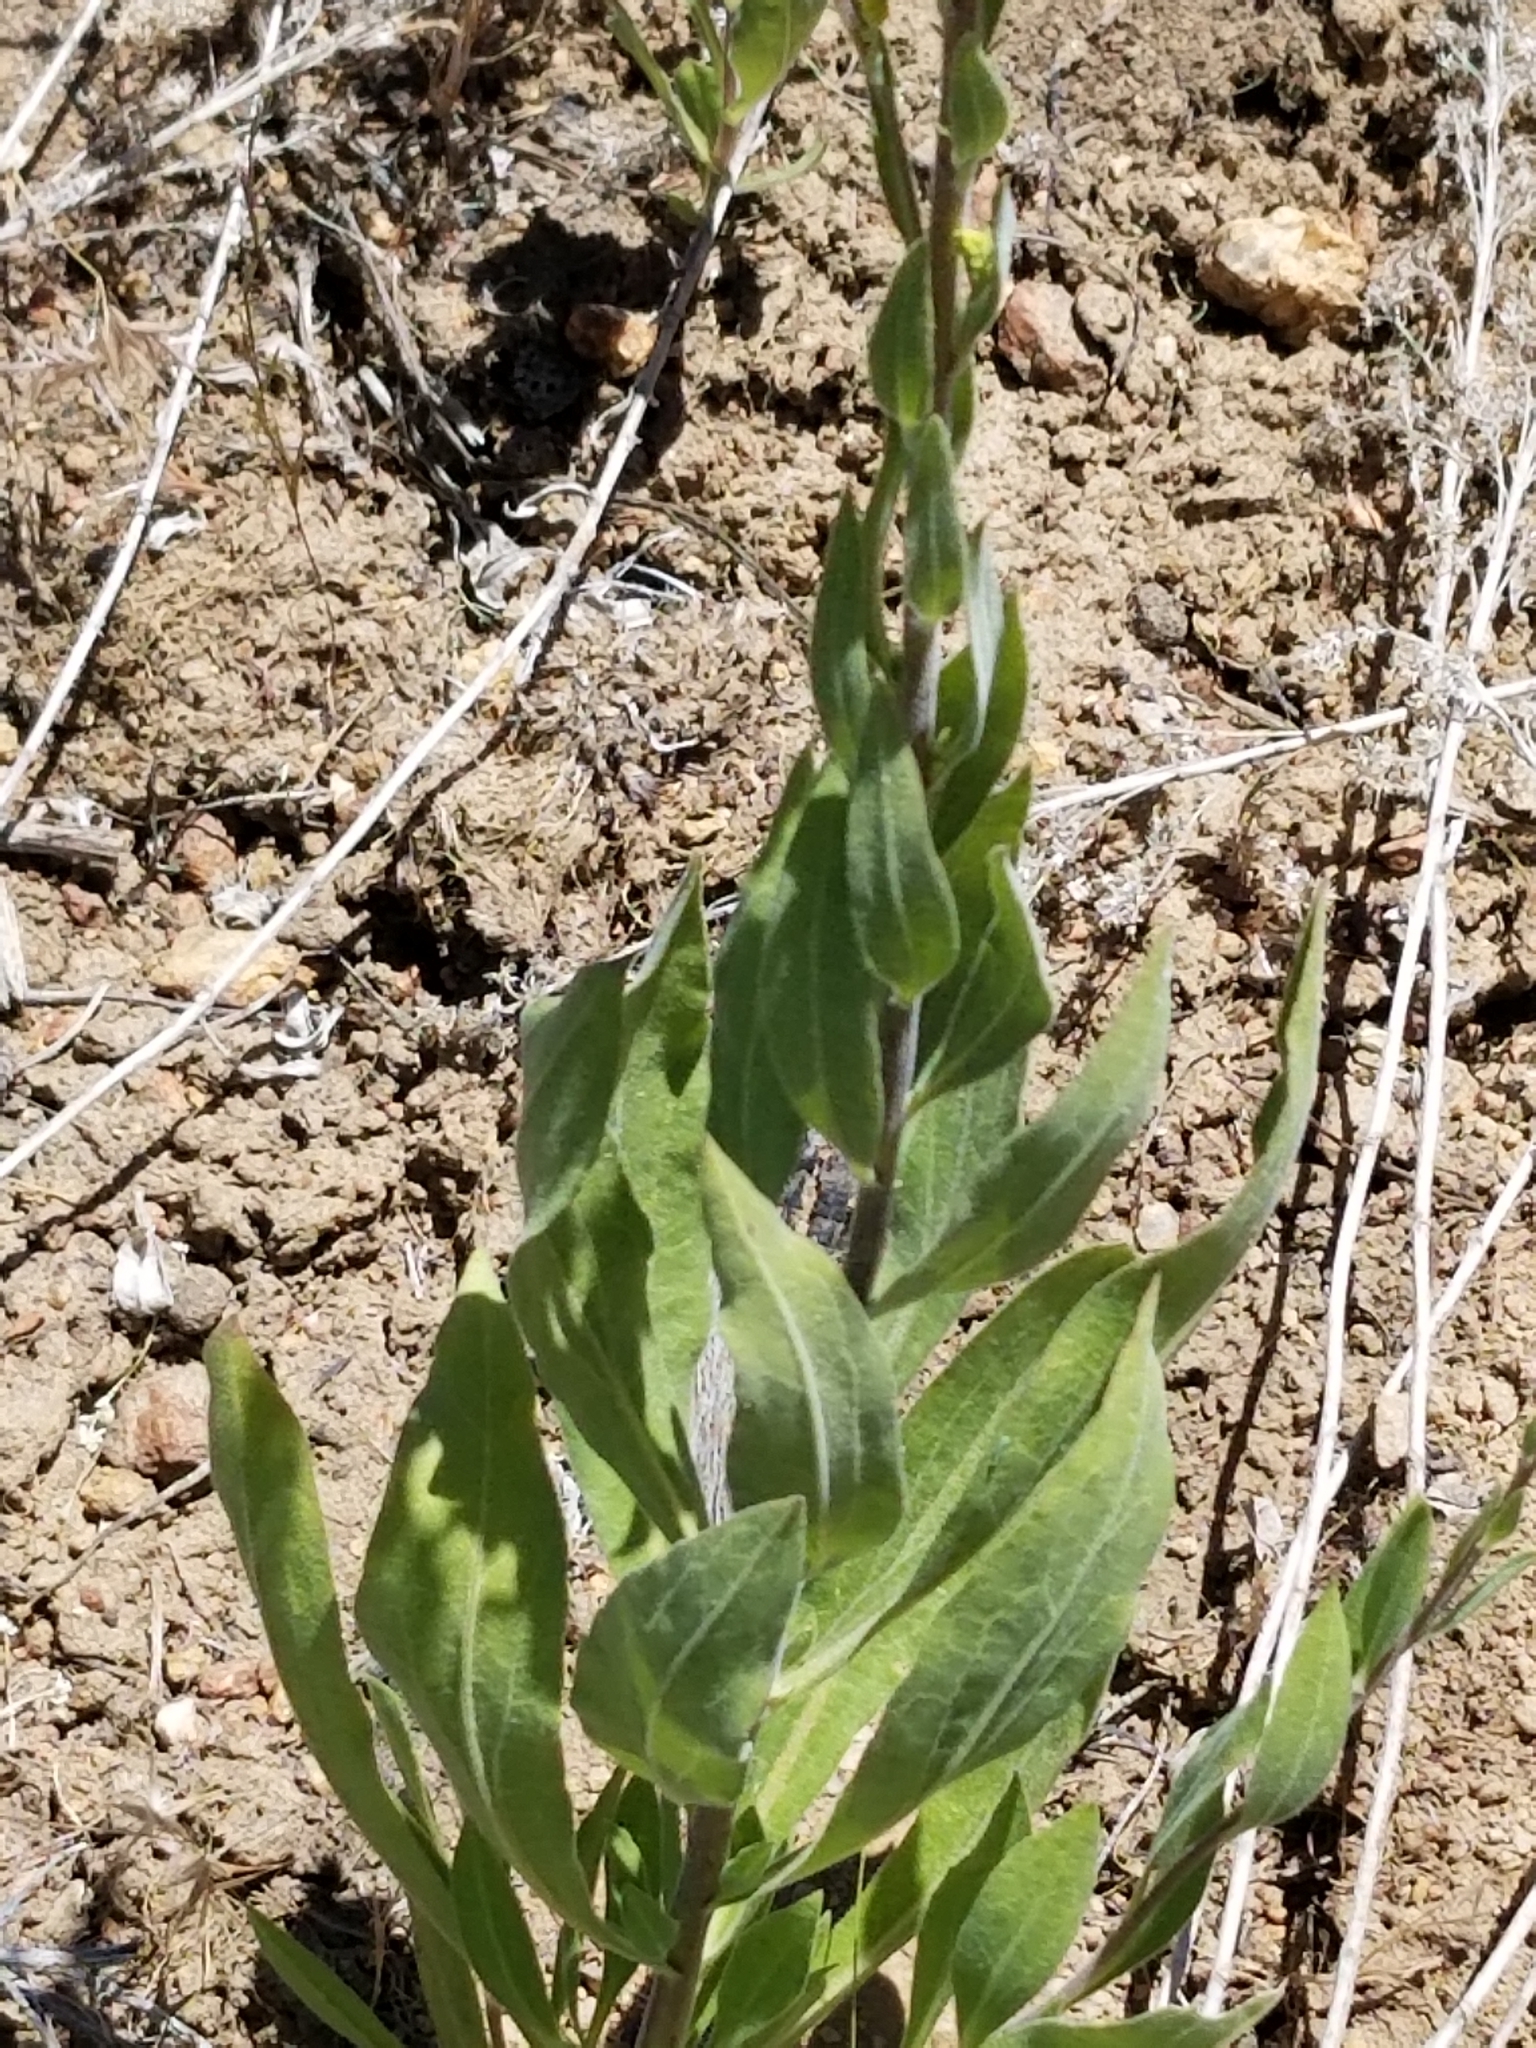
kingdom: Plantae
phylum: Tracheophyta
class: Magnoliopsida
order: Asterales
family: Asteraceae
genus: Solidago
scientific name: Solidago velutina
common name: Three-nerve goldenrod
